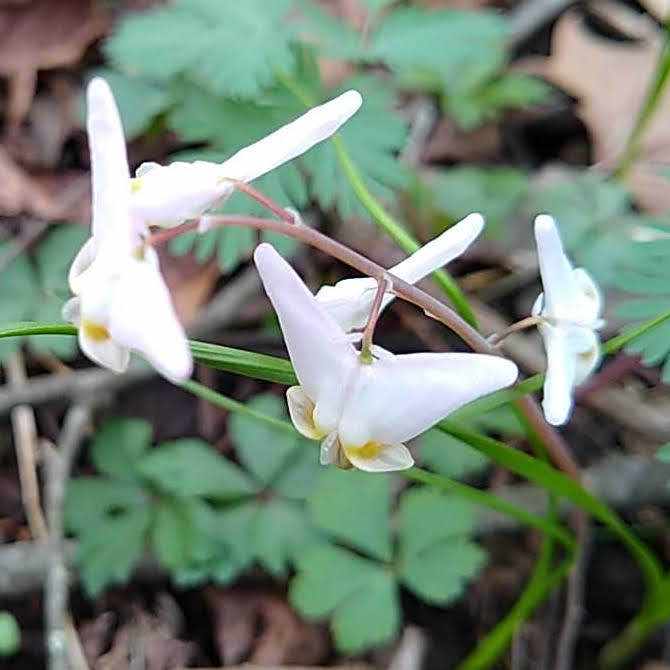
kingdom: Plantae
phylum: Tracheophyta
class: Magnoliopsida
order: Ranunculales
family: Papaveraceae
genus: Dicentra
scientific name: Dicentra cucullaria
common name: Dutchman's breeches
